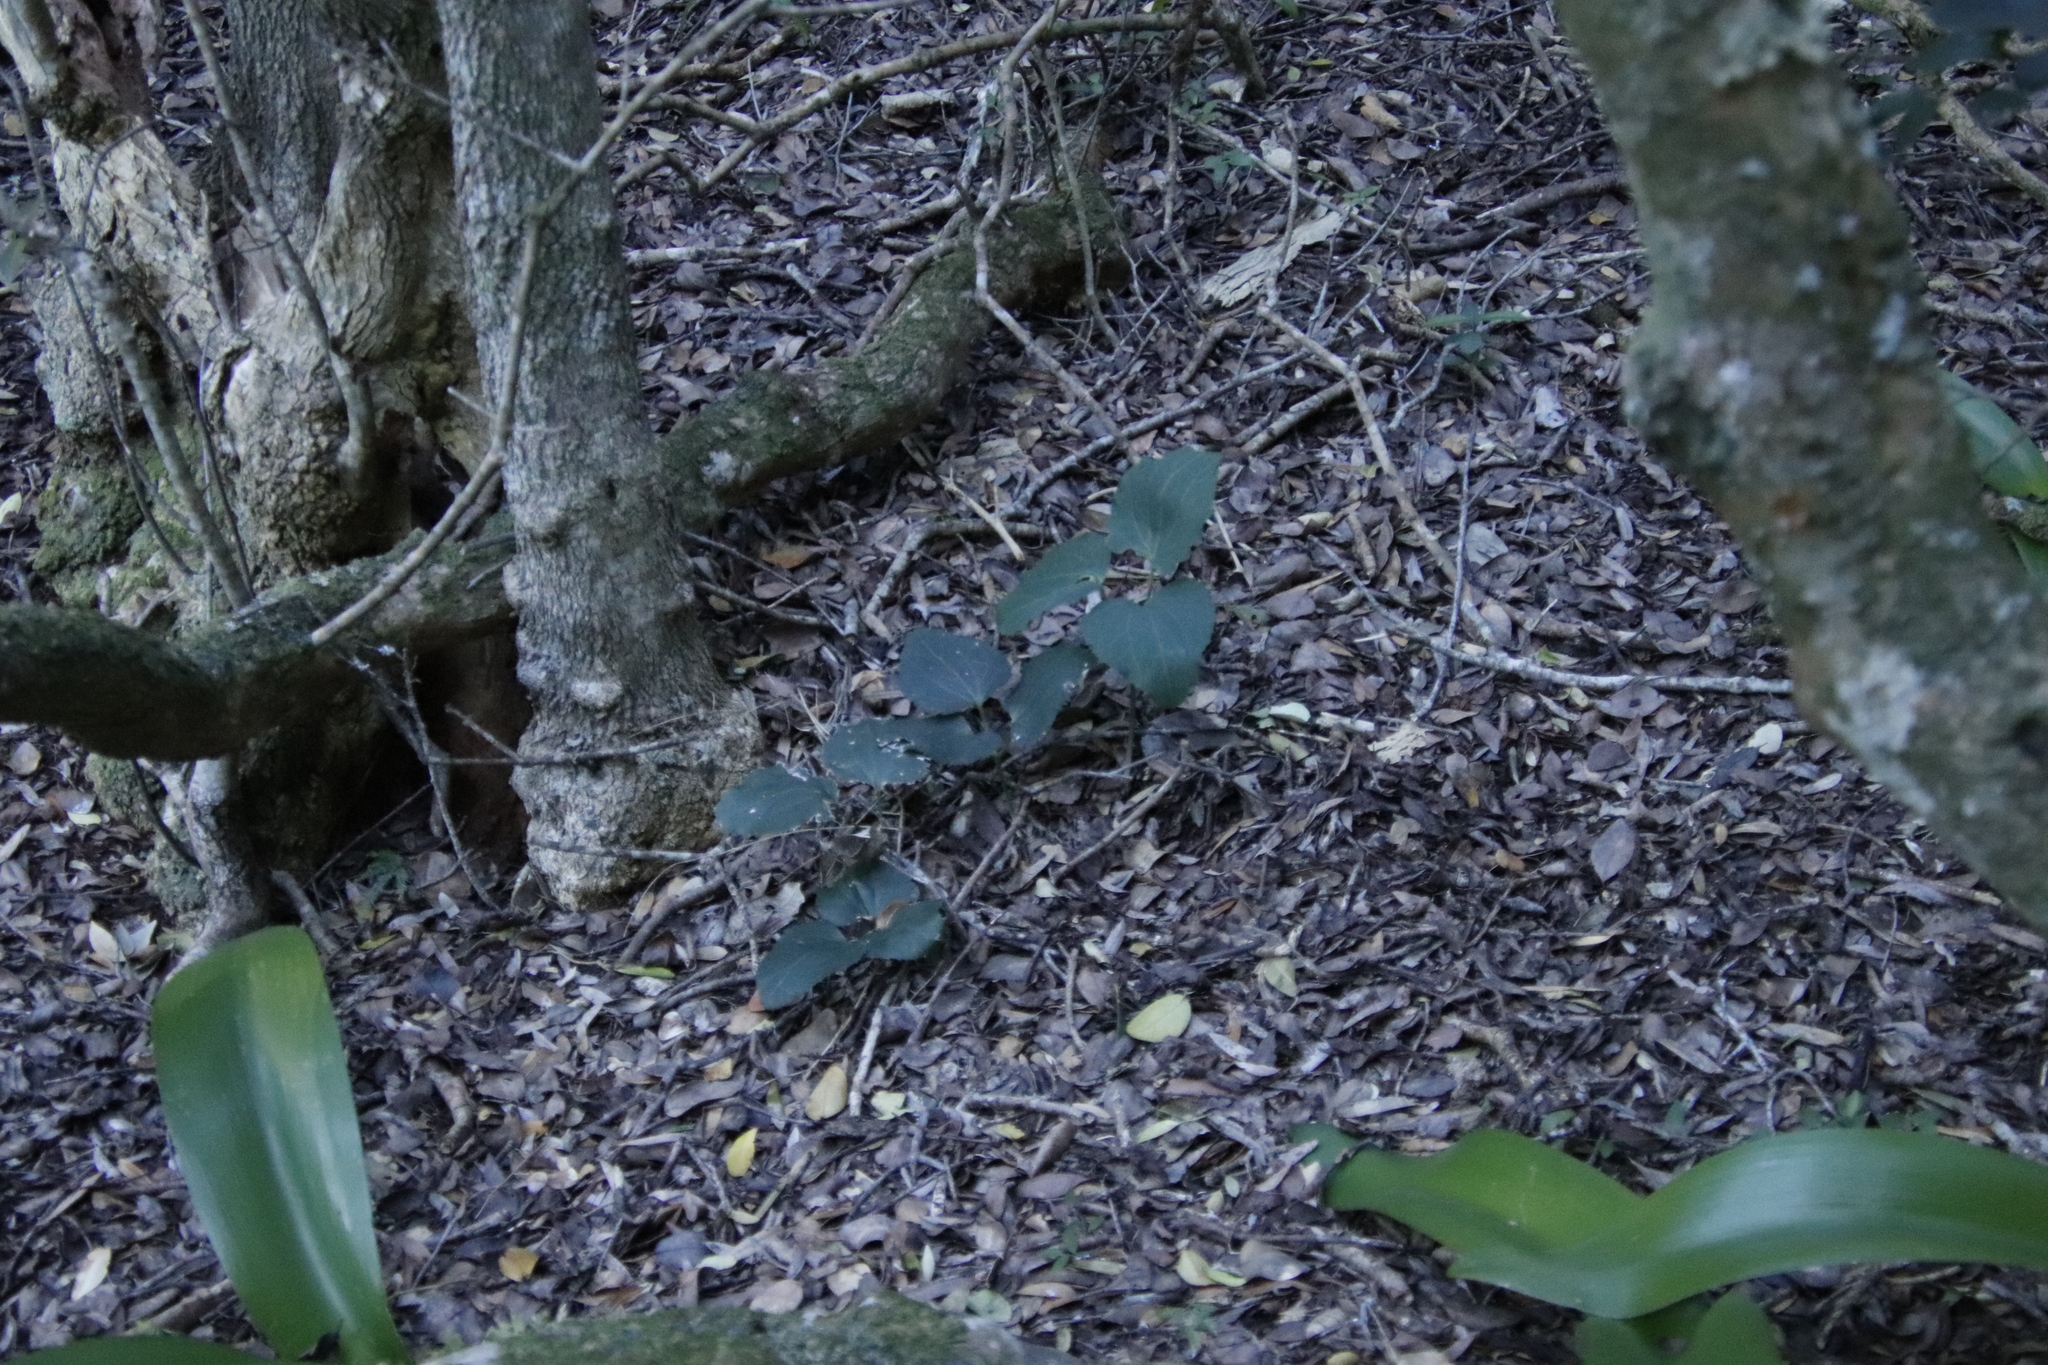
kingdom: Plantae
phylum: Tracheophyta
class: Magnoliopsida
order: Ranunculales
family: Ranunculaceae
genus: Knowltonia
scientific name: Knowltonia vesicatoria
